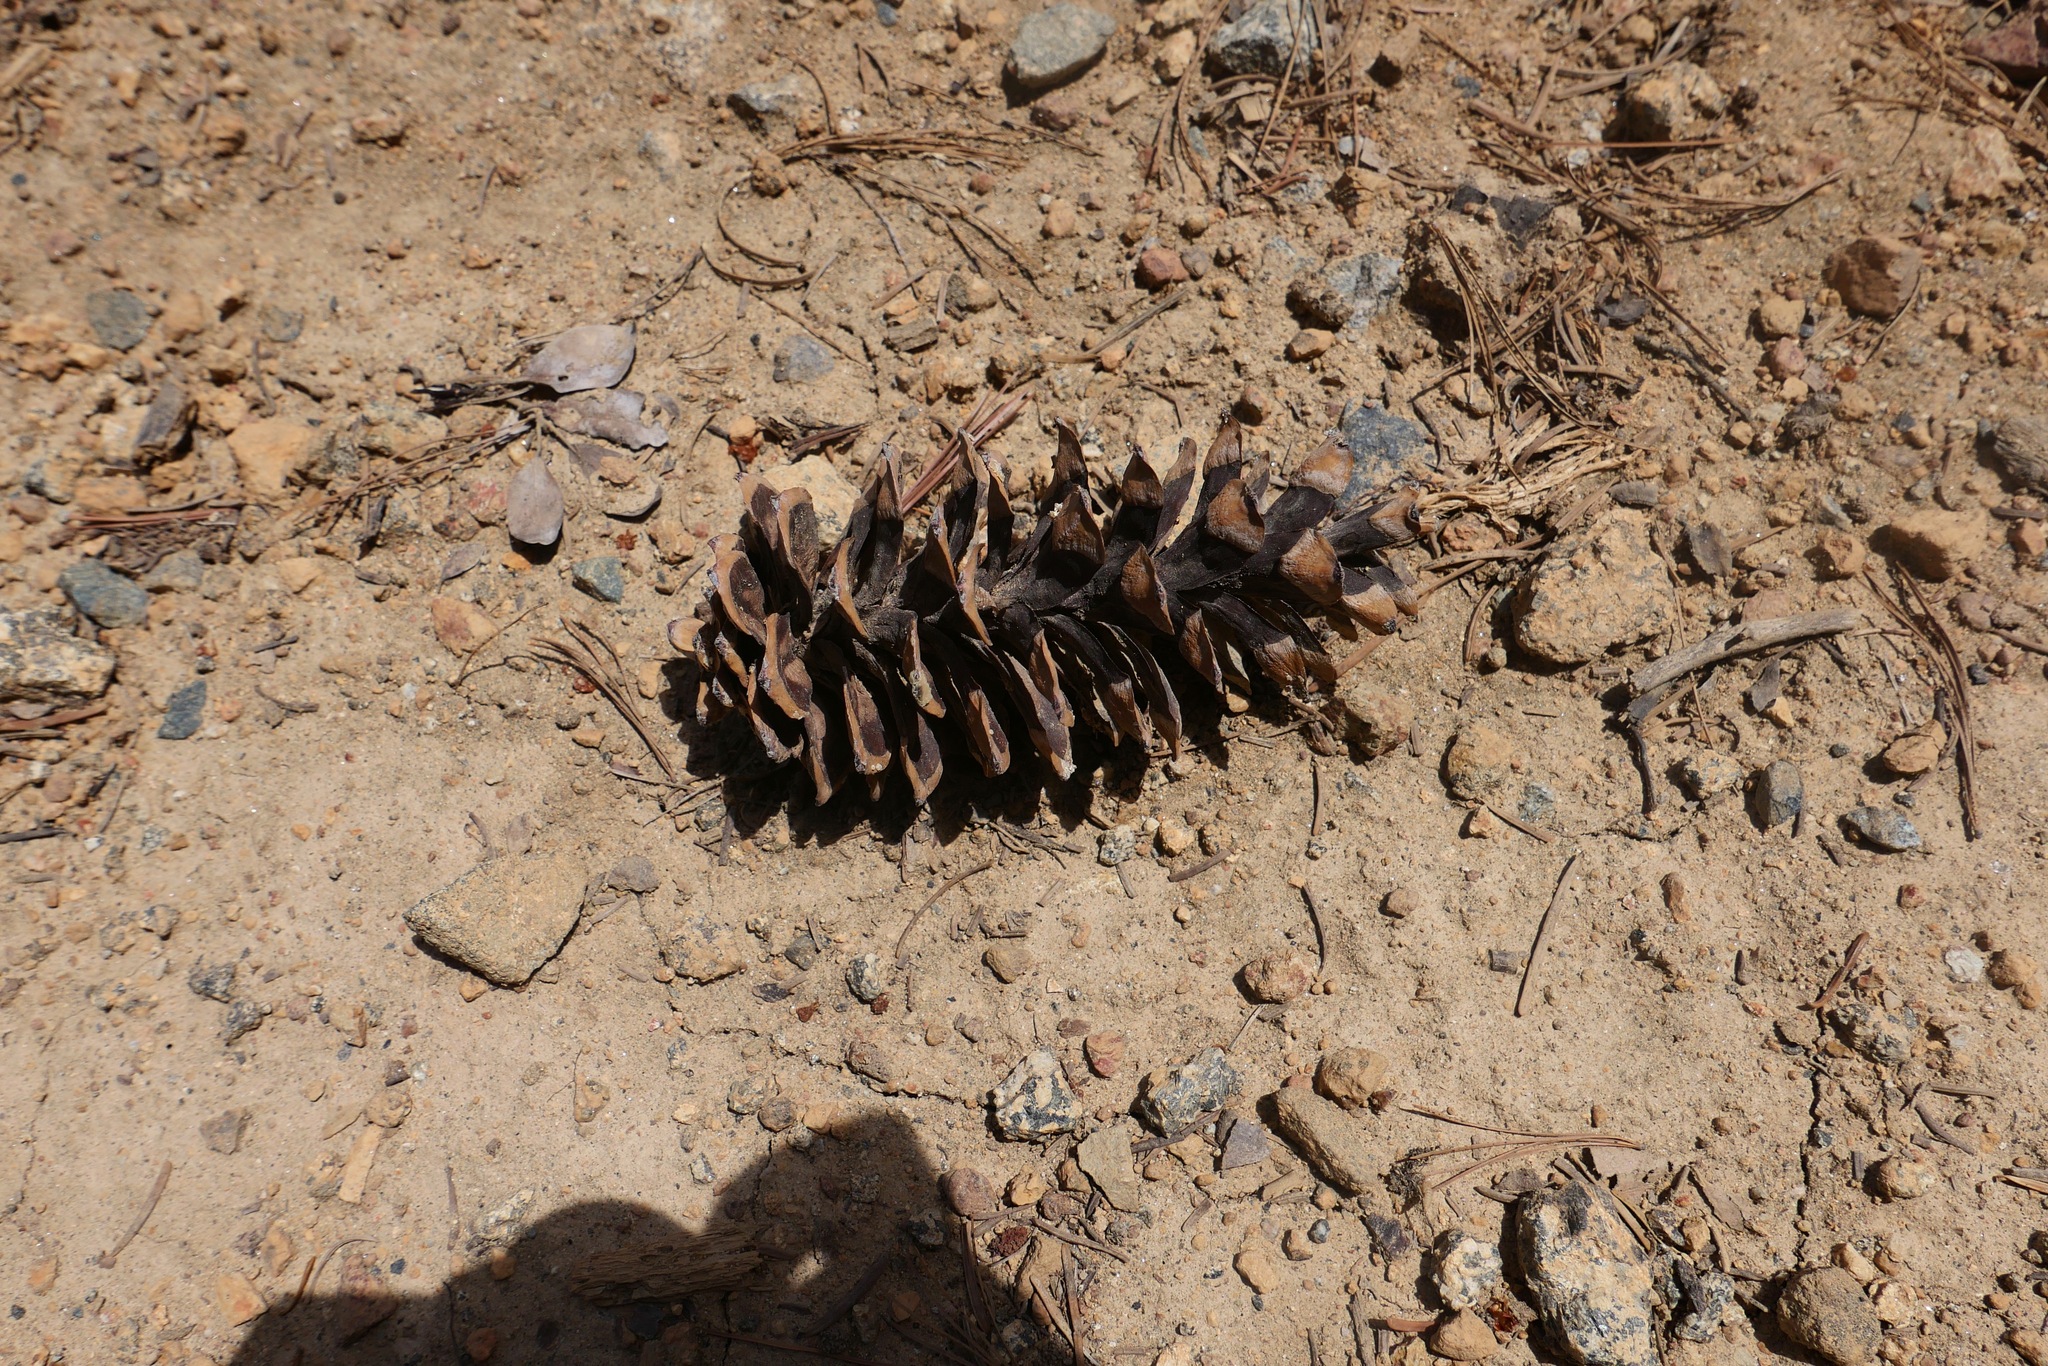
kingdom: Plantae
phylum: Tracheophyta
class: Pinopsida
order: Pinales
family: Pinaceae
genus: Pinus
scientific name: Pinus lambertiana
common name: Sugar pine
